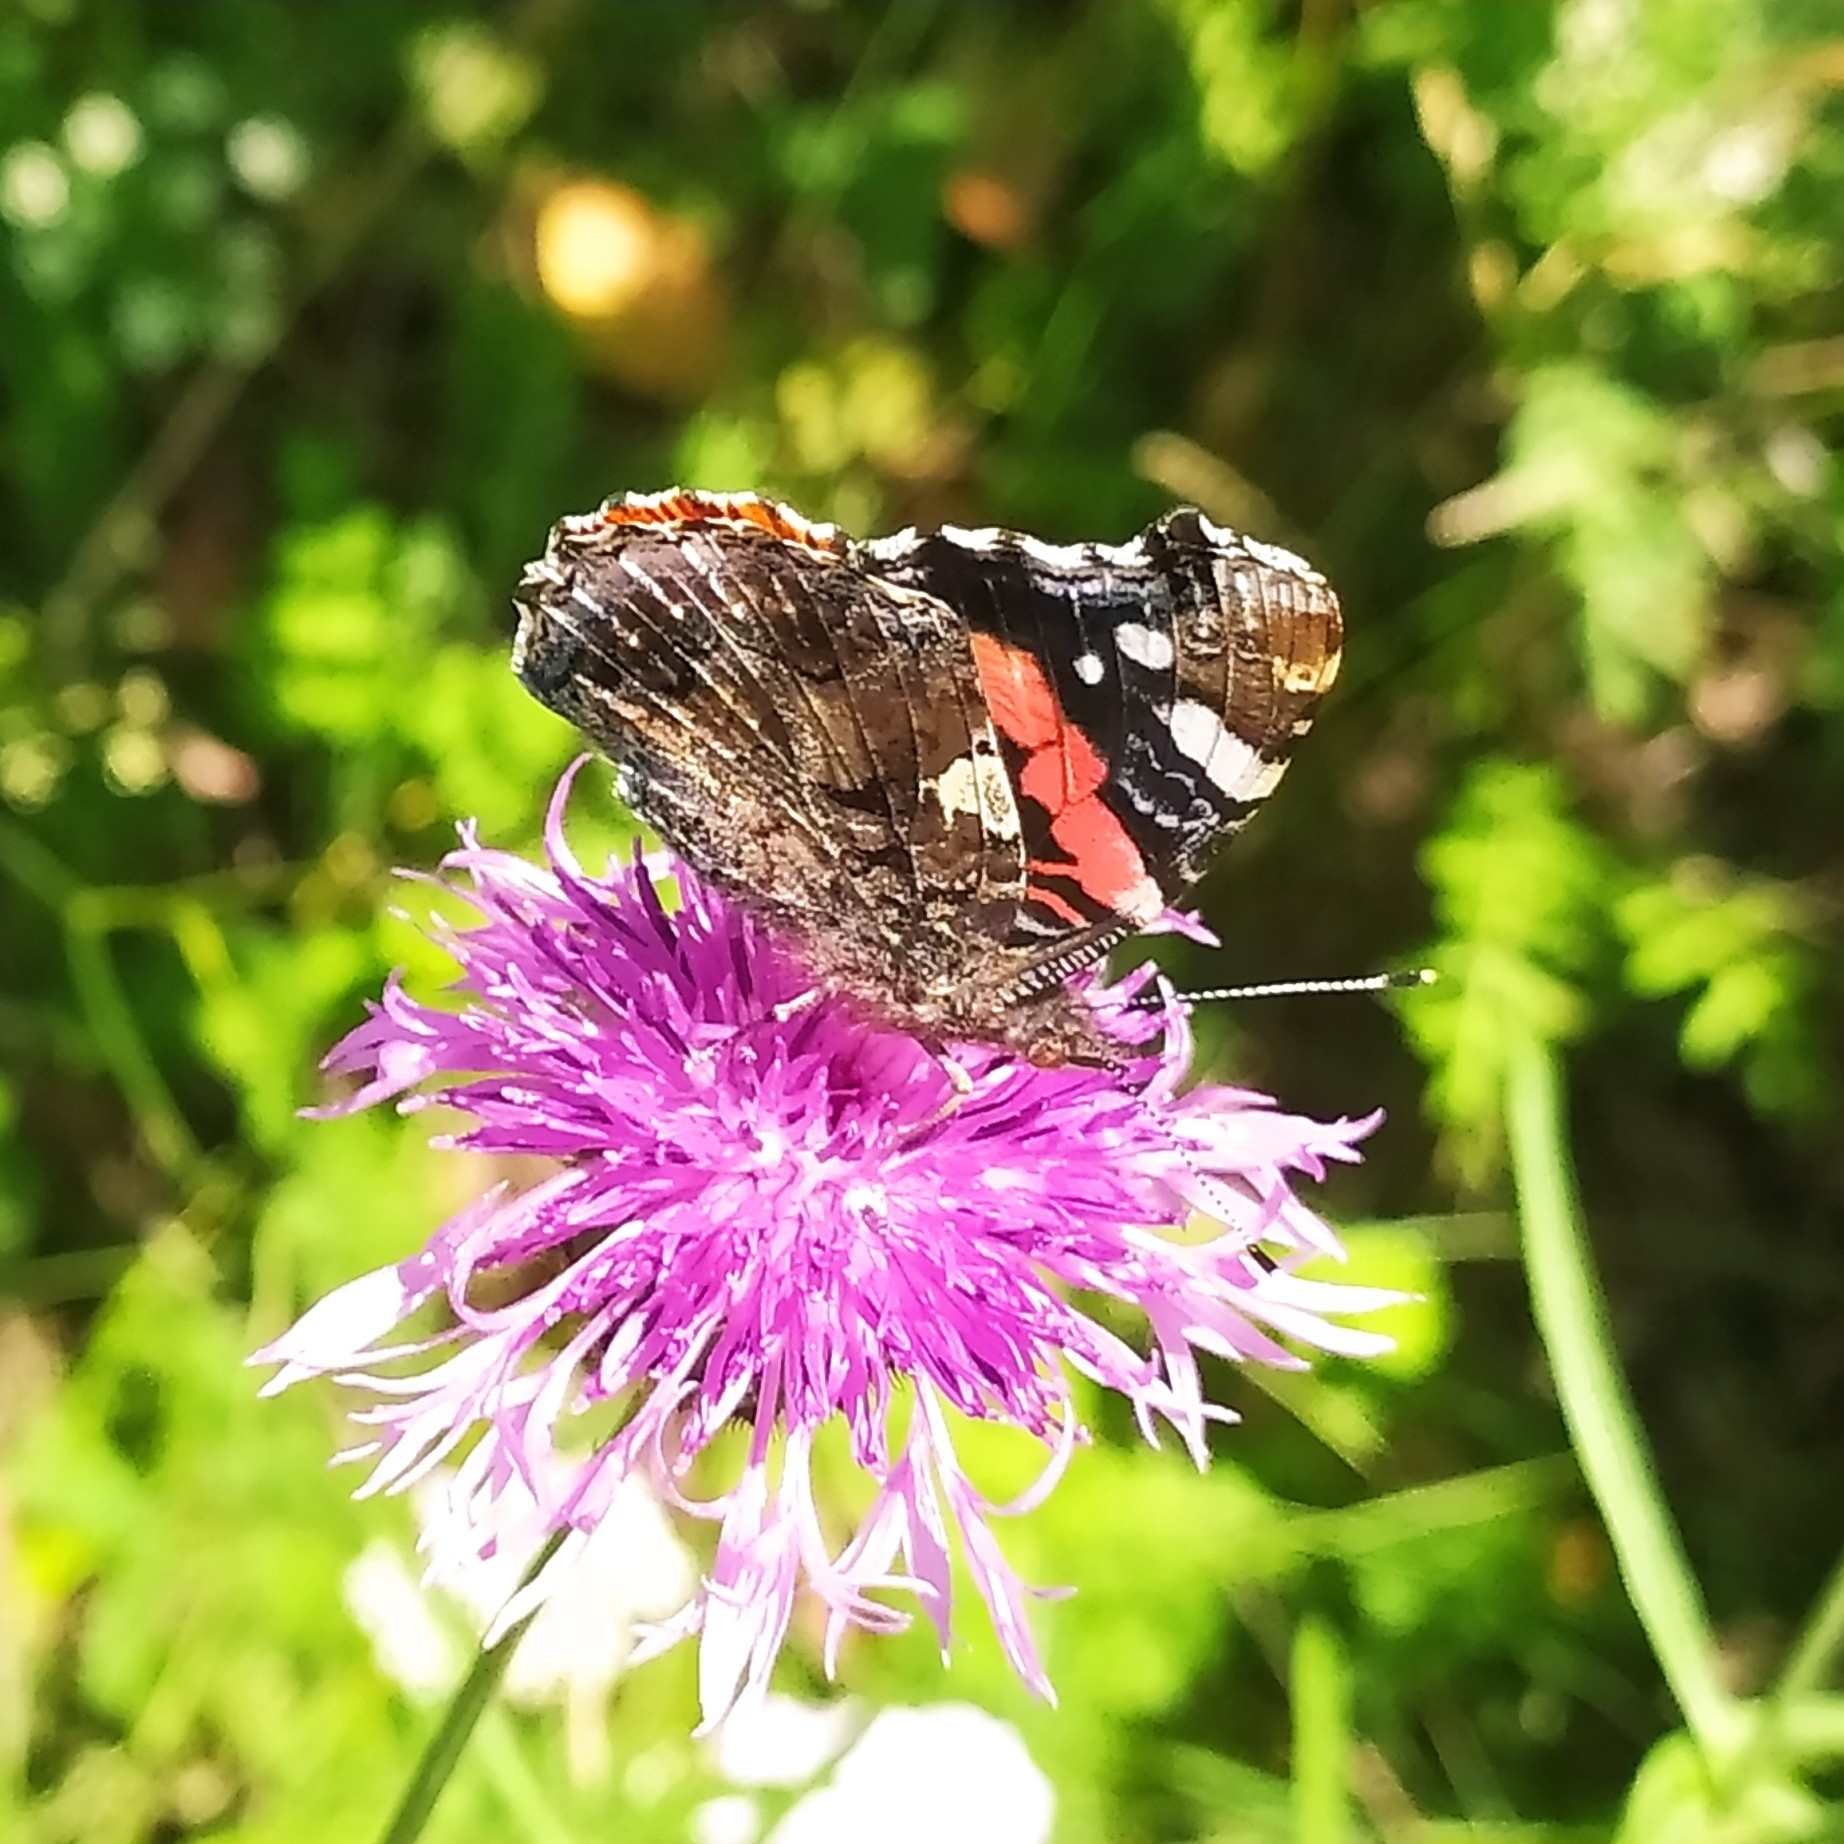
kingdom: Animalia
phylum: Arthropoda
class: Insecta
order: Lepidoptera
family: Nymphalidae
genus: Vanessa
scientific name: Vanessa atalanta
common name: Red admiral
